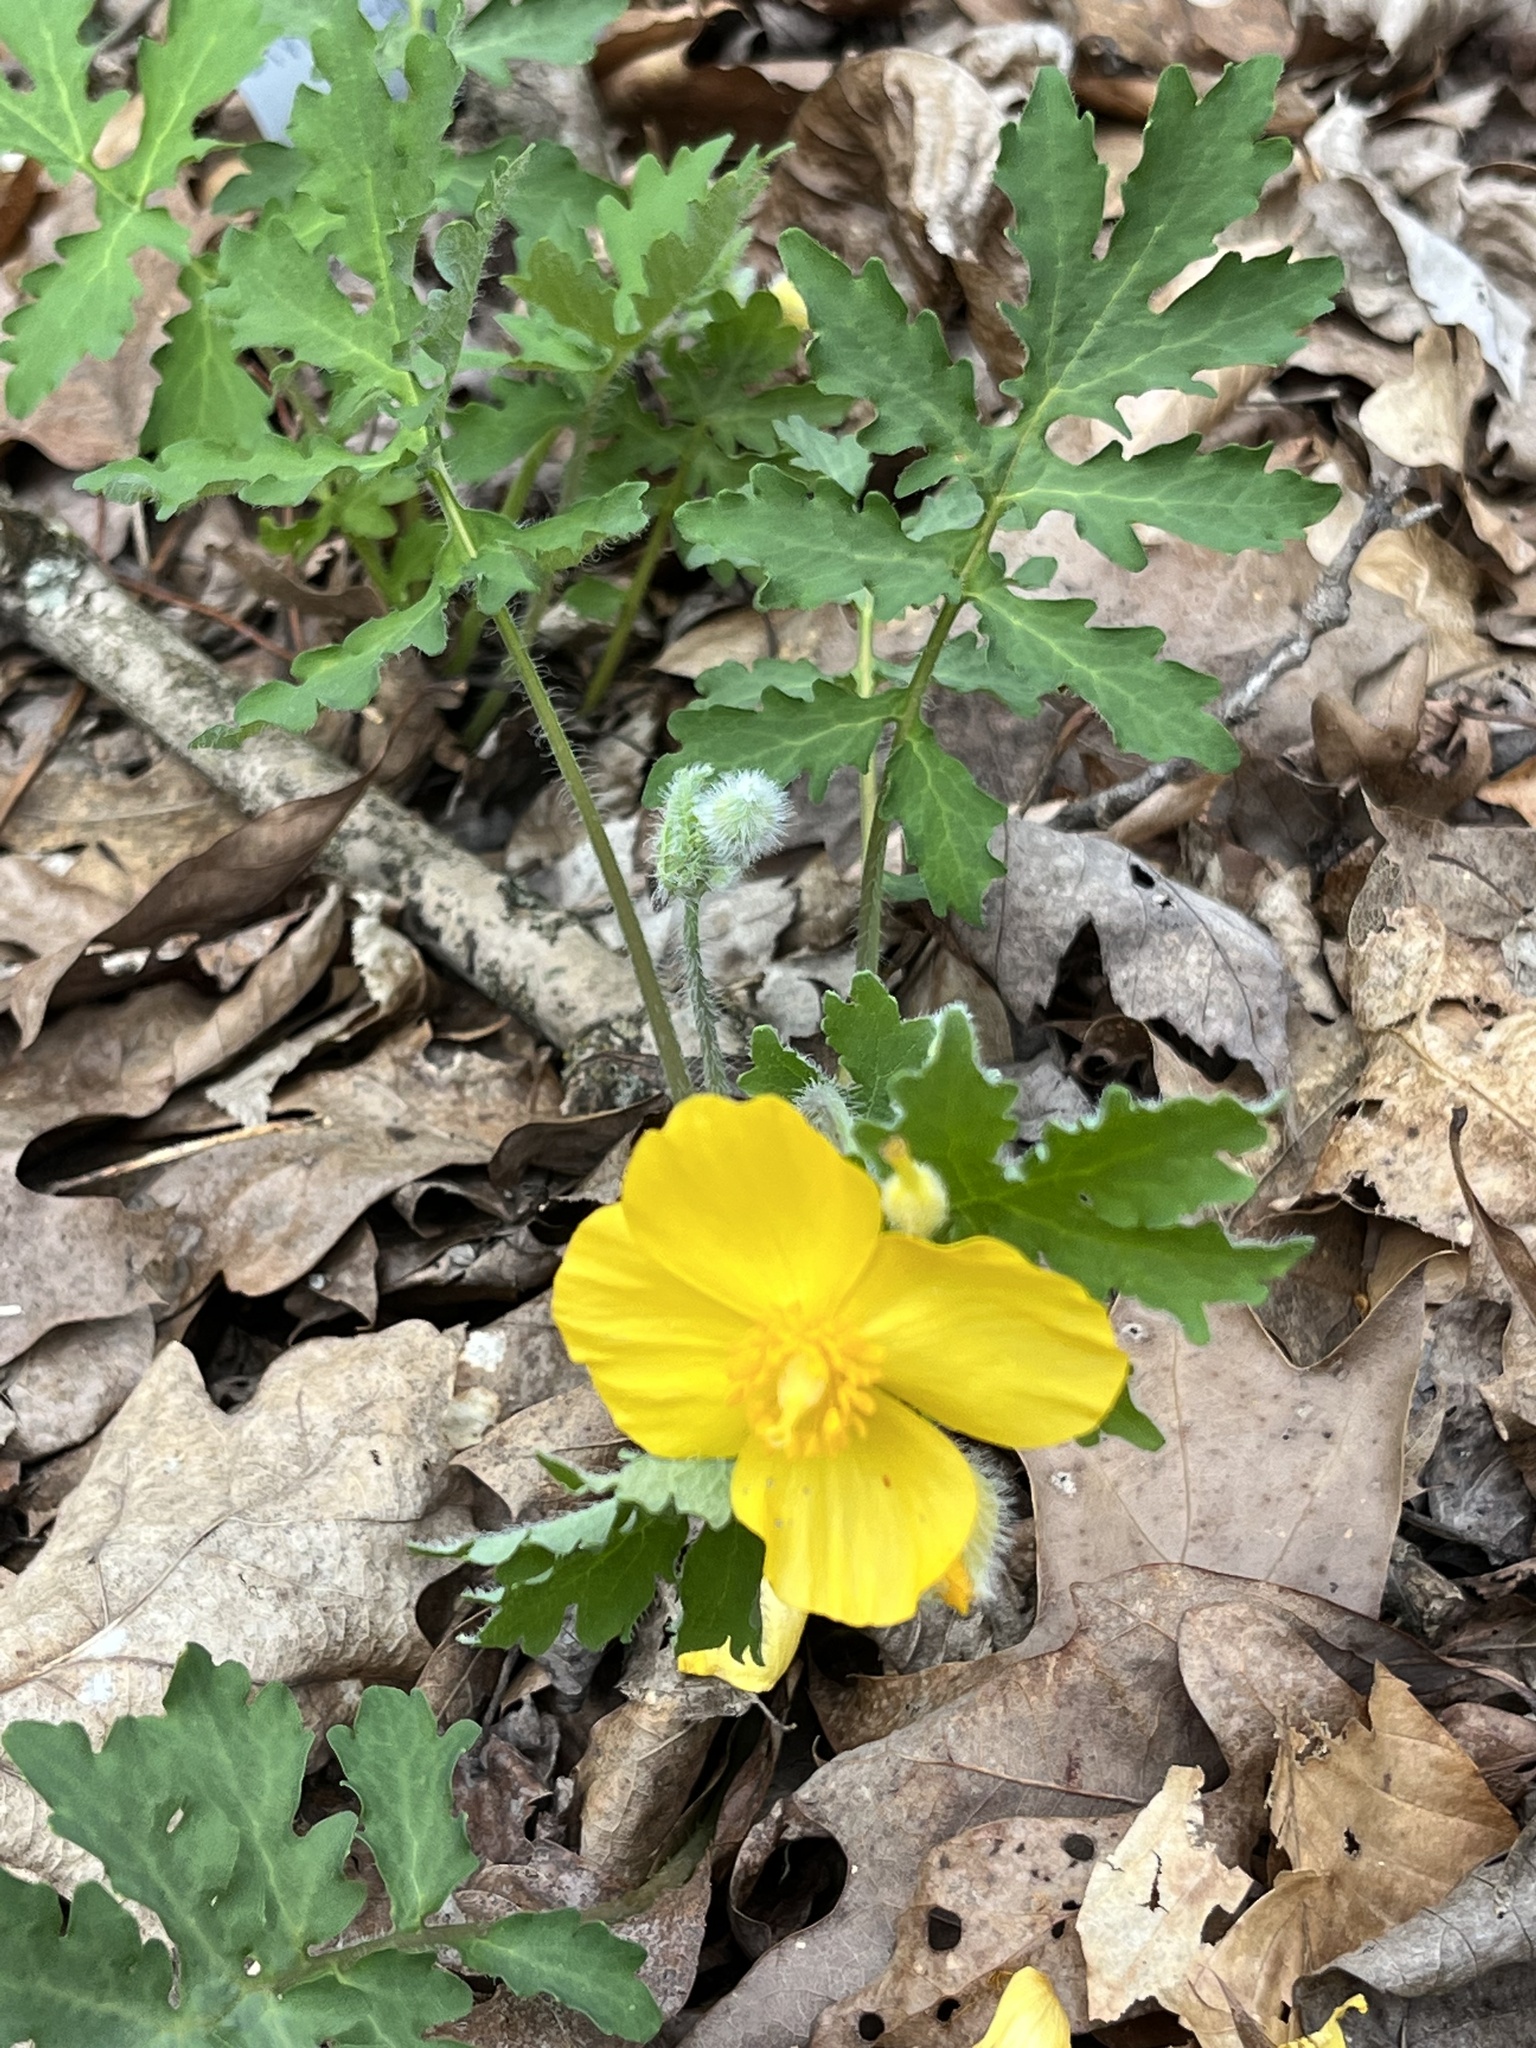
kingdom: Plantae
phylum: Tracheophyta
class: Magnoliopsida
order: Ranunculales
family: Papaveraceae
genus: Stylophorum
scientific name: Stylophorum diphyllum
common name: Celandine poppy
